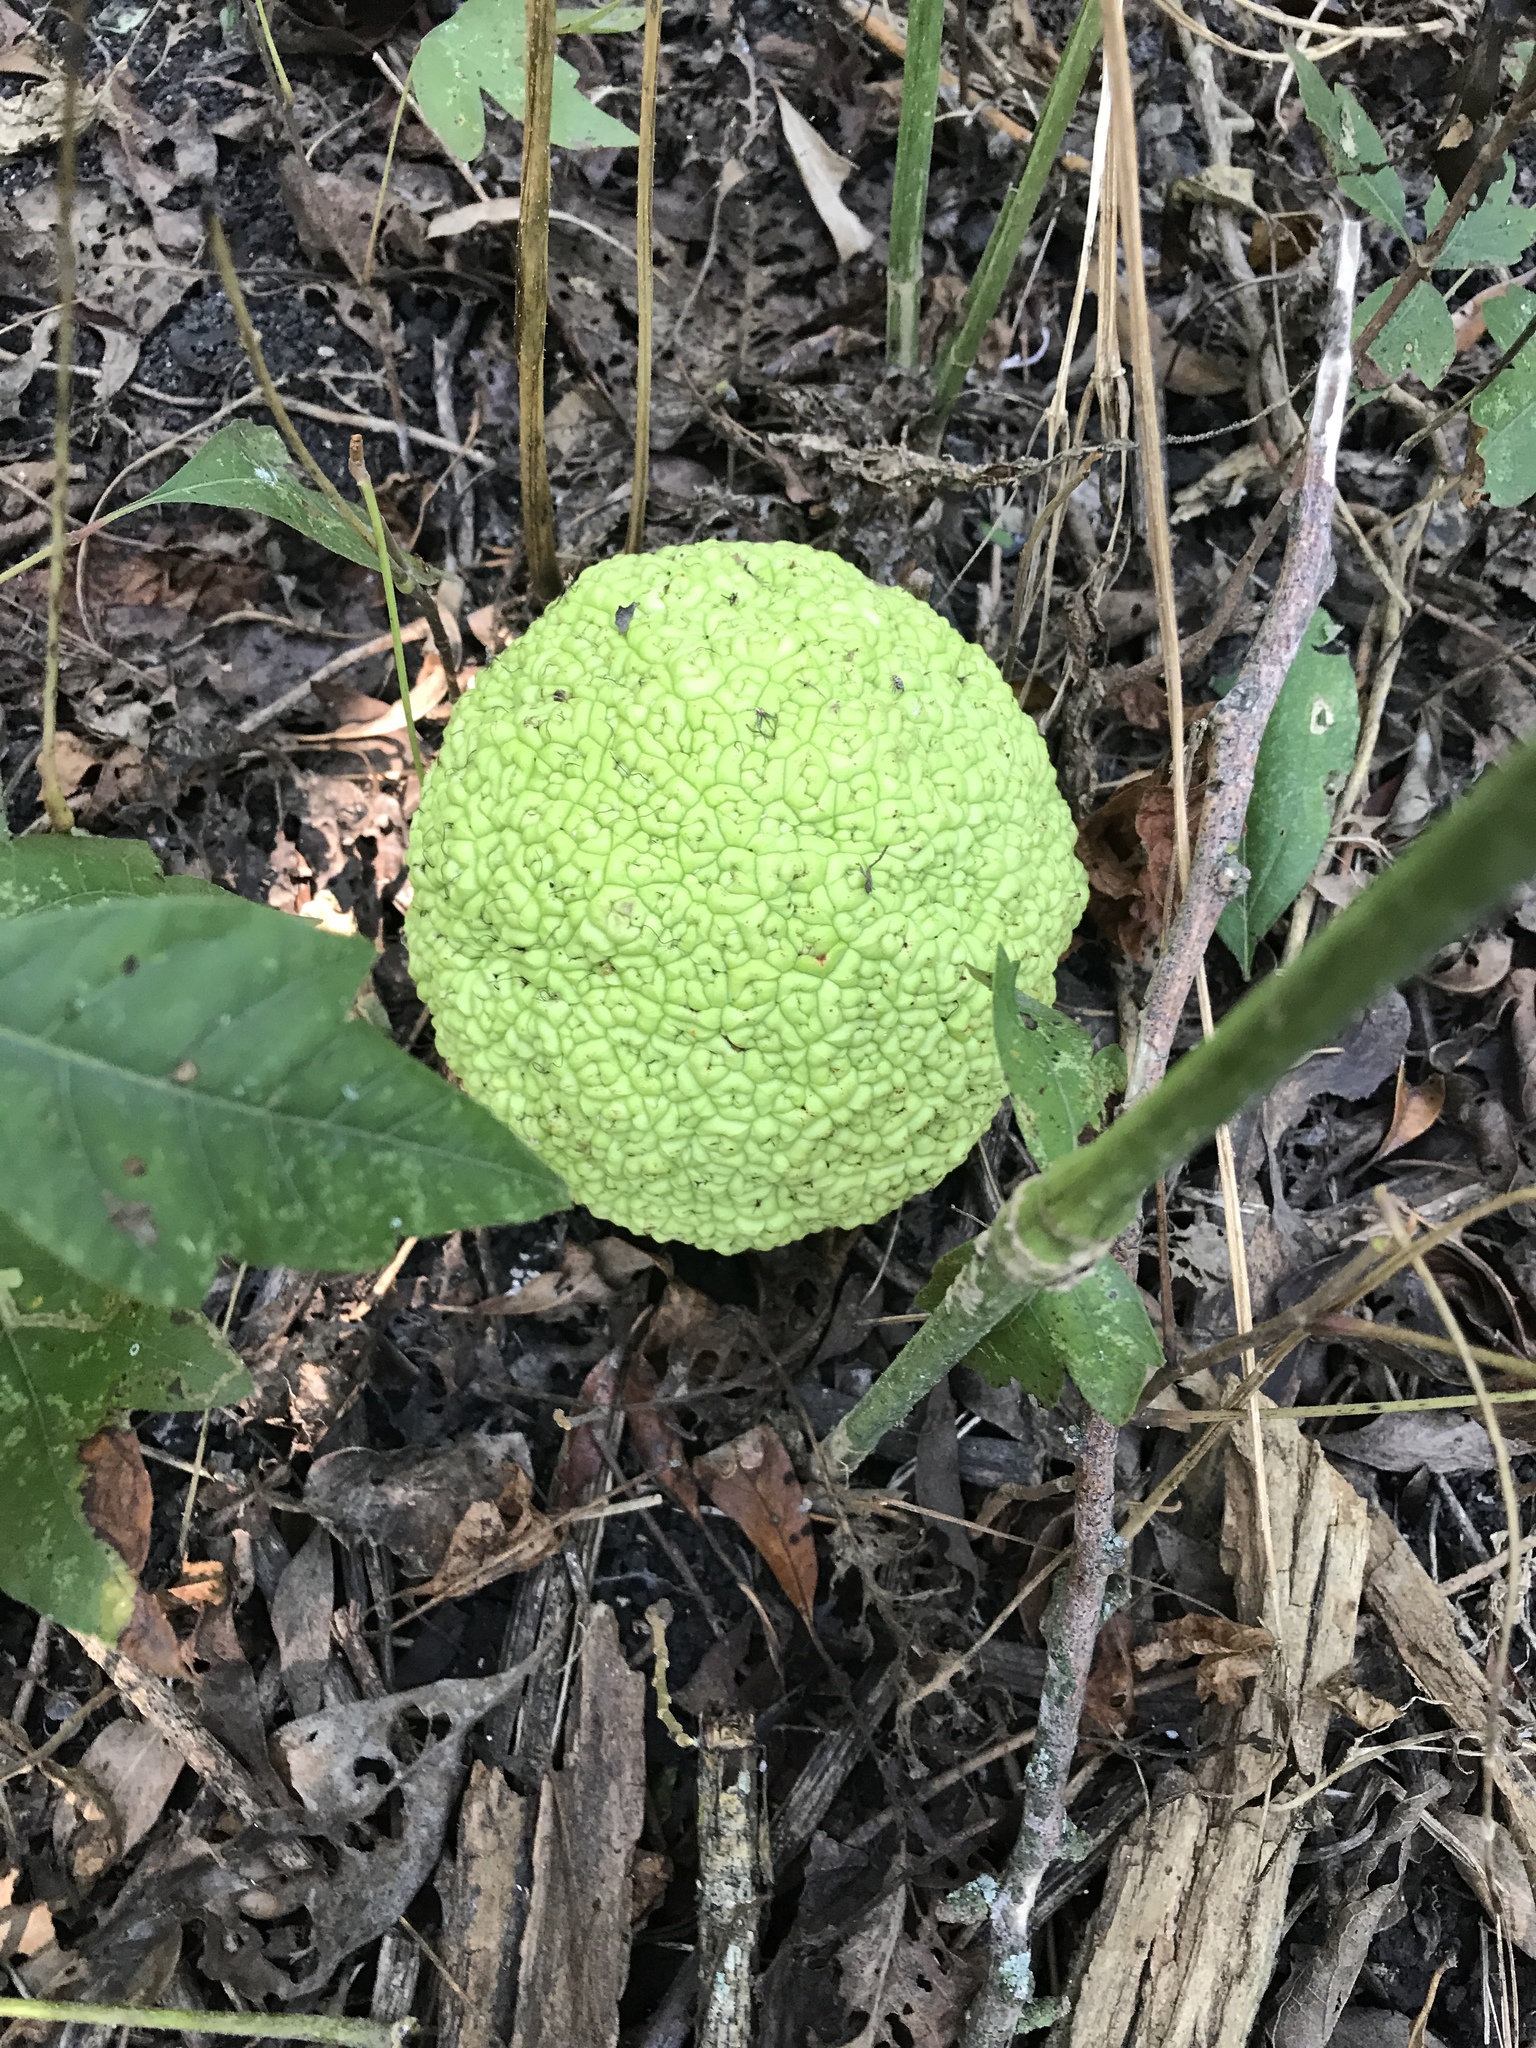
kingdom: Plantae
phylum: Tracheophyta
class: Magnoliopsida
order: Rosales
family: Moraceae
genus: Maclura
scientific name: Maclura pomifera
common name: Osage-orange
